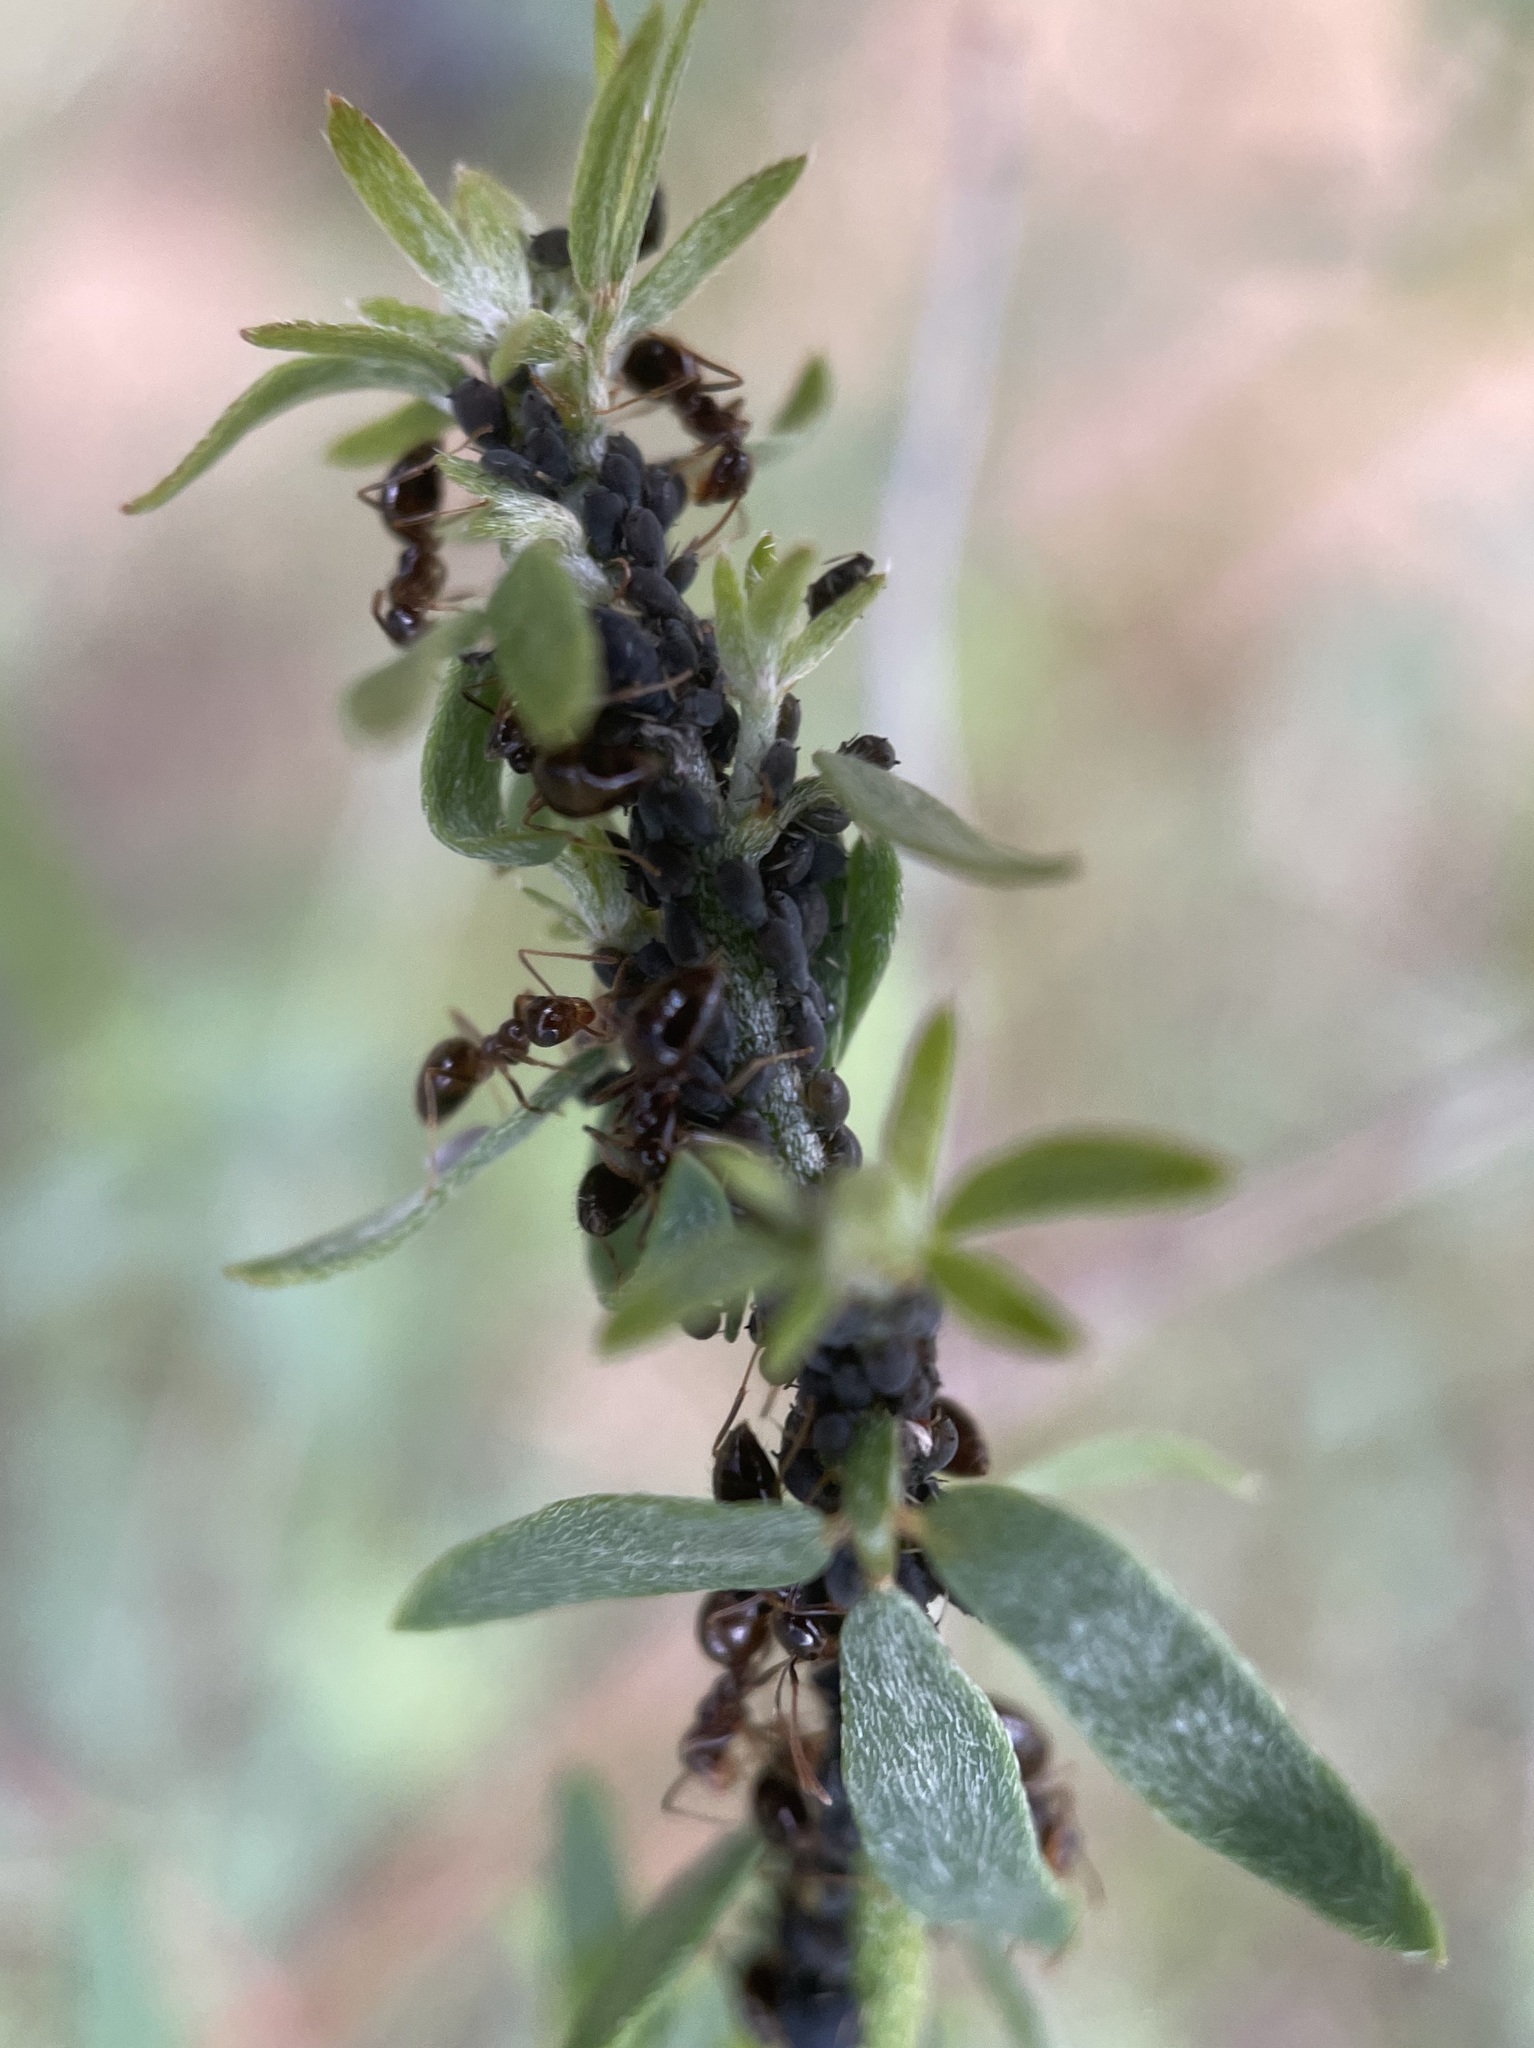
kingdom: Animalia
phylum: Arthropoda
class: Insecta
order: Hymenoptera
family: Formicidae
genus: Prenolepis
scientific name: Prenolepis imparis
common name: Small honey ant
